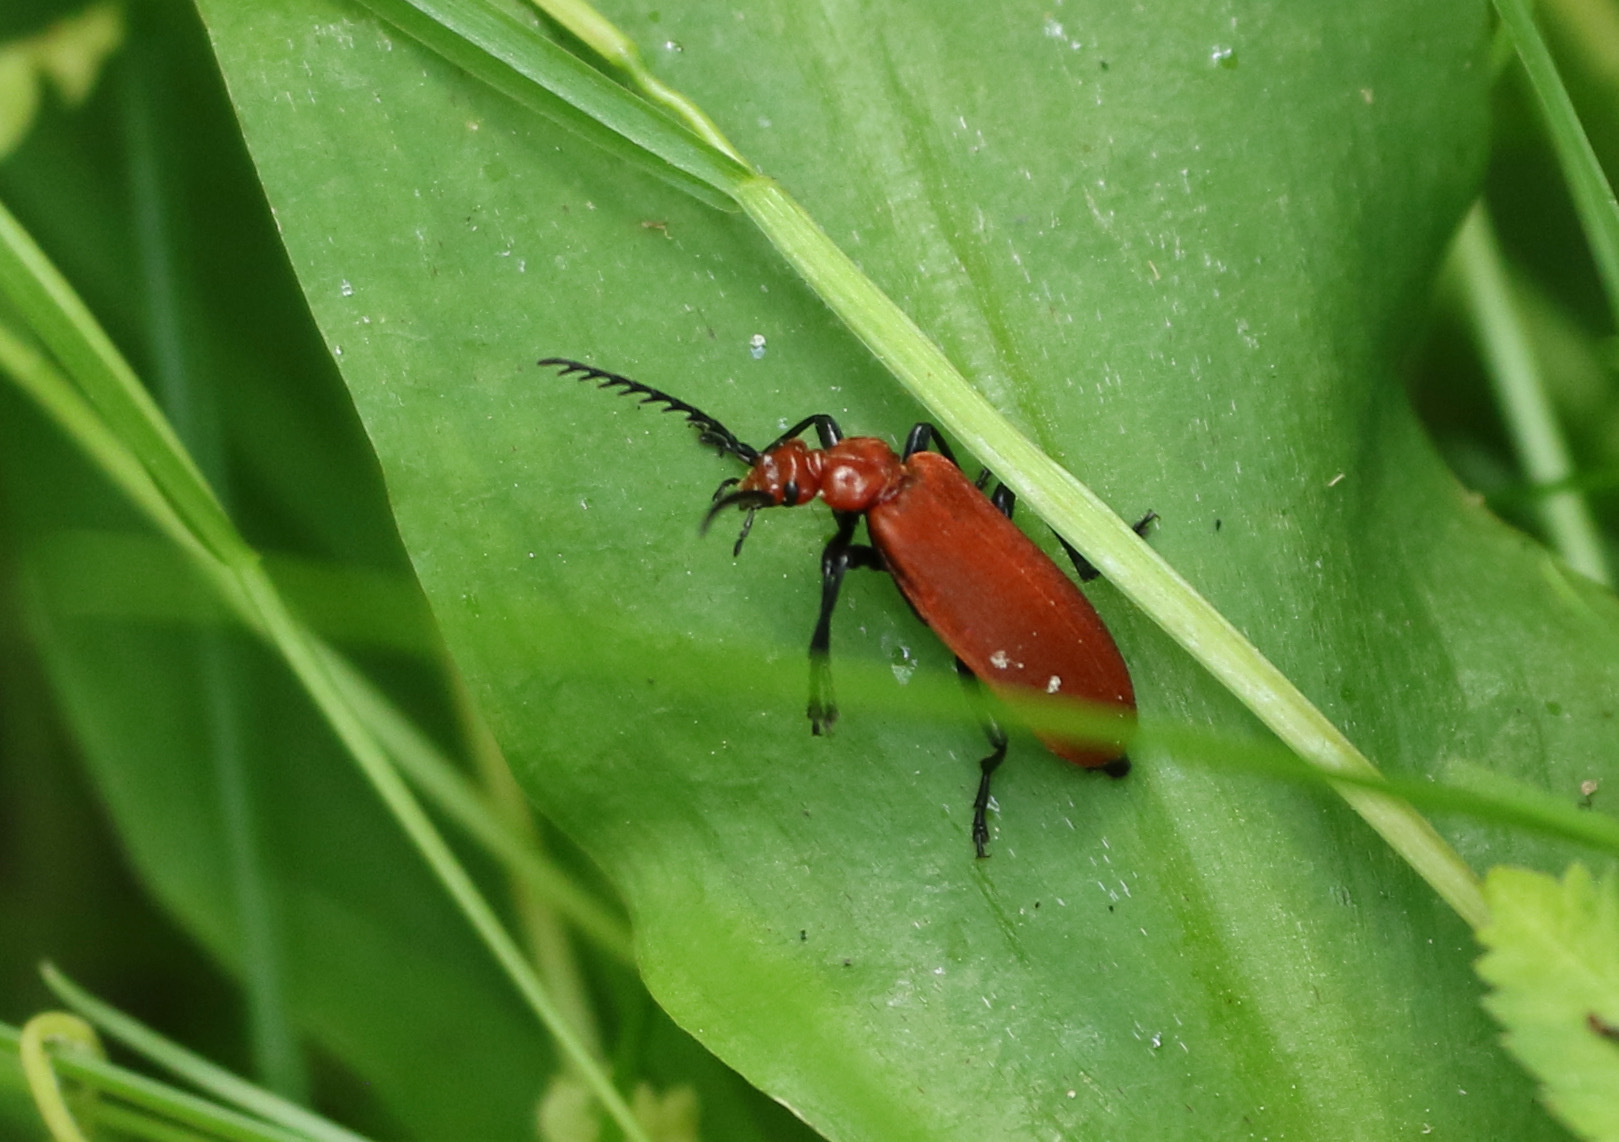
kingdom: Animalia
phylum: Arthropoda
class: Insecta
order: Coleoptera
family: Pyrochroidae
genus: Pyrochroa
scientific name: Pyrochroa serraticornis
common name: Red-headed cardinal beetle
